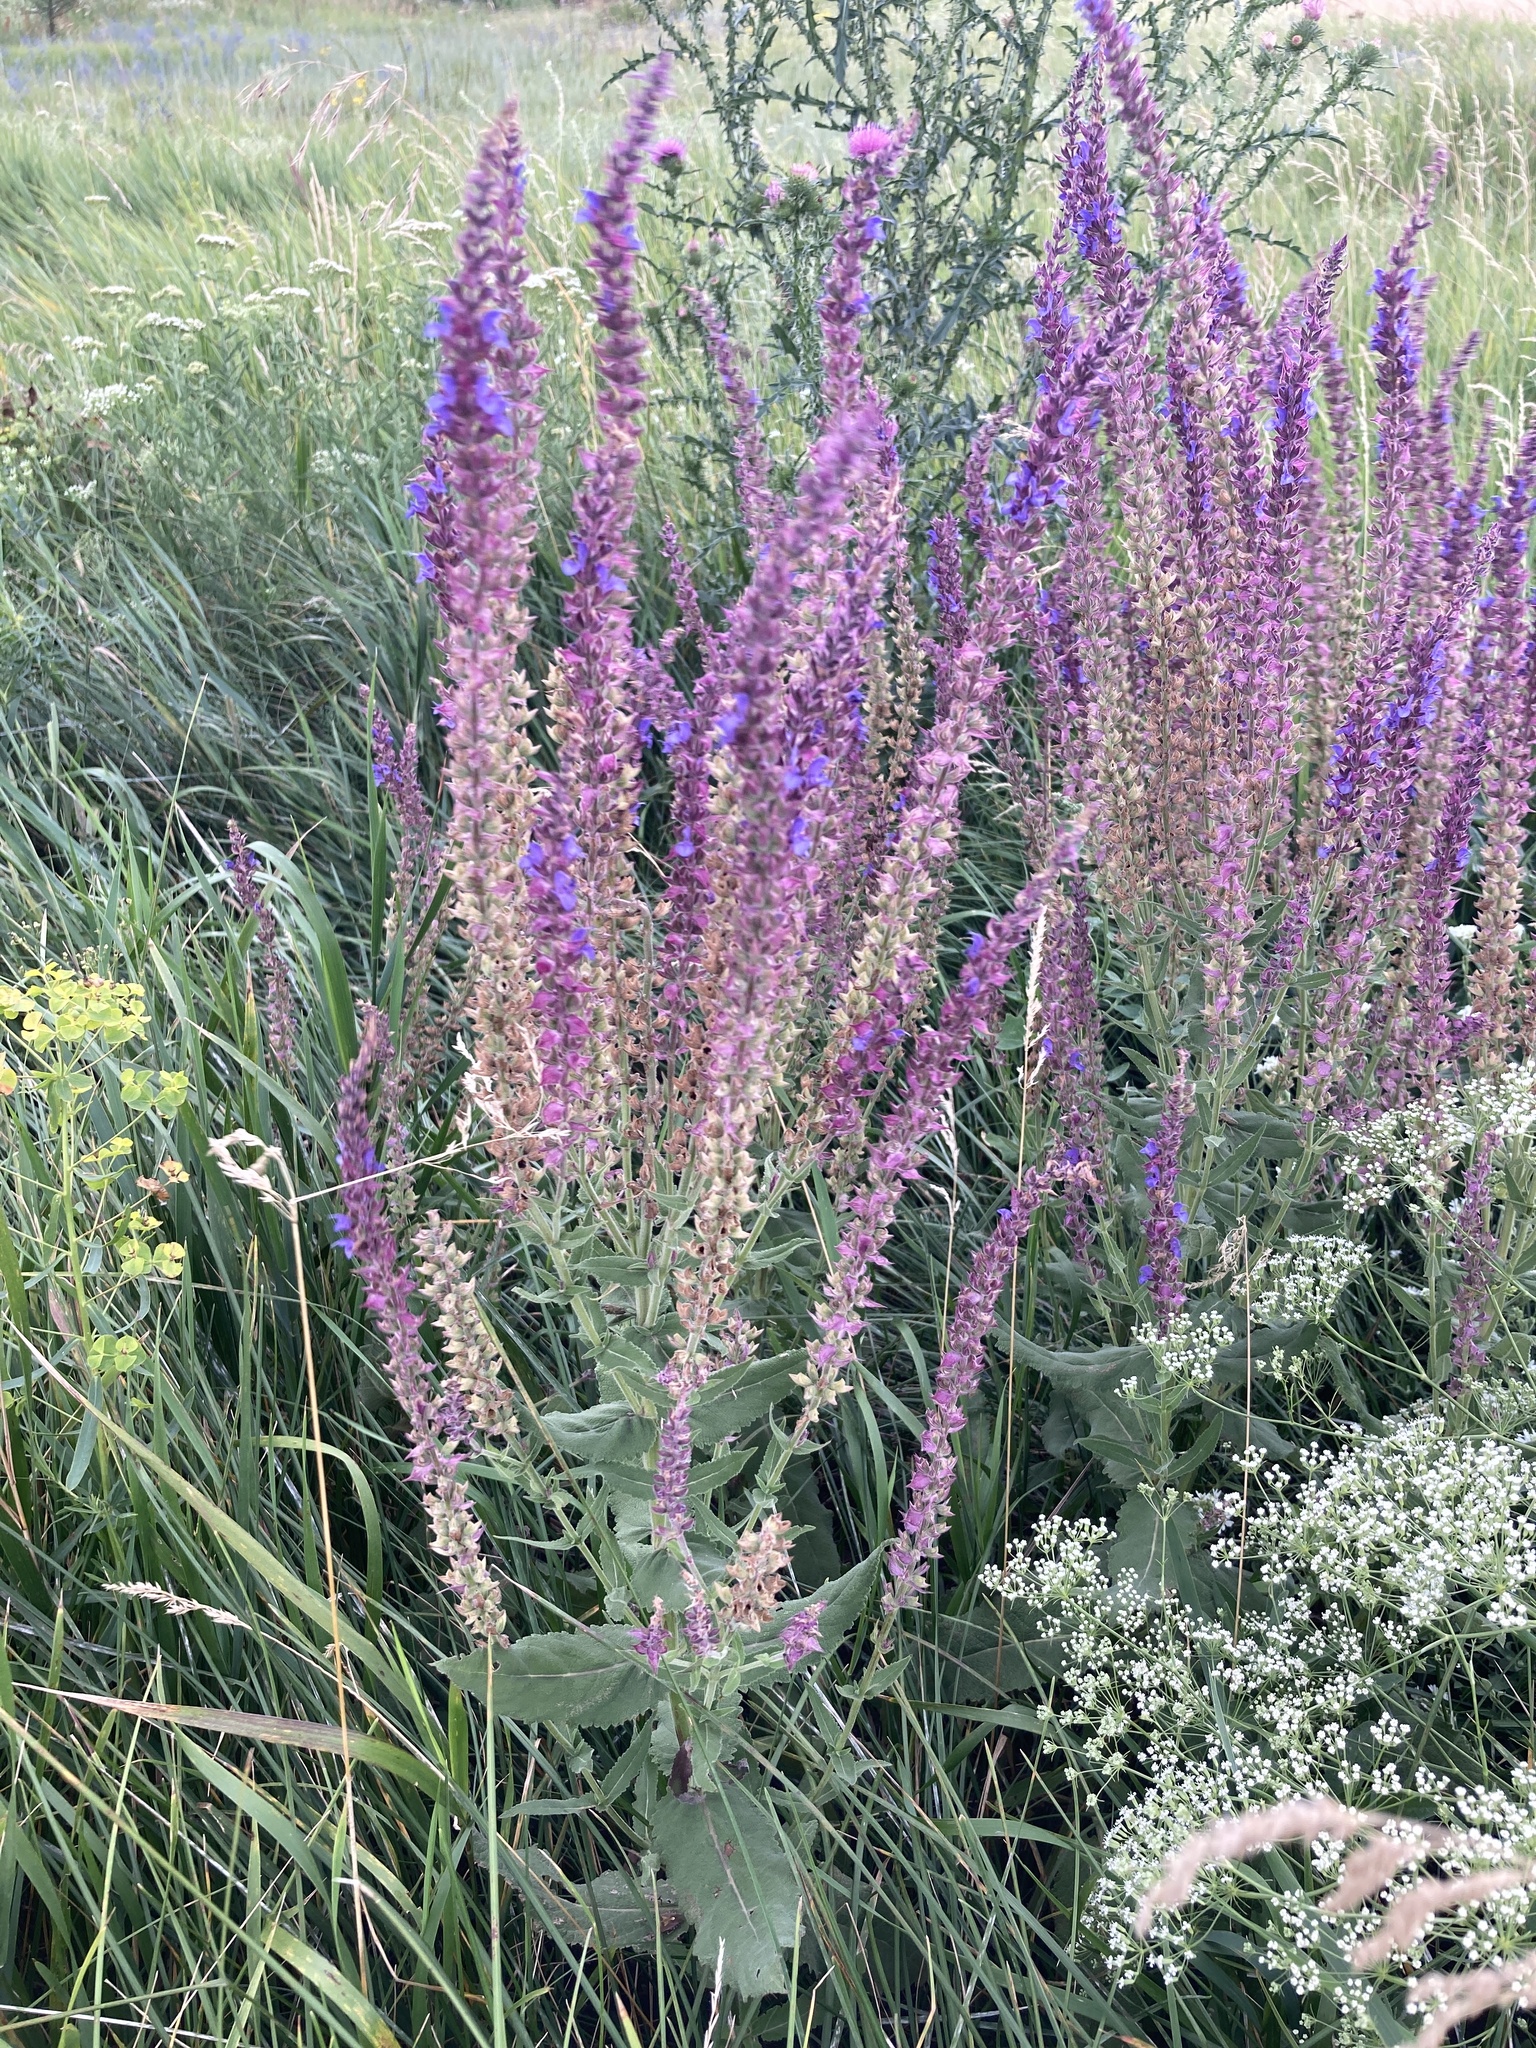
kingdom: Plantae
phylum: Tracheophyta
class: Magnoliopsida
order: Lamiales
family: Lamiaceae
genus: Salvia
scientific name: Salvia nemorosa
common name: Balkan clary
